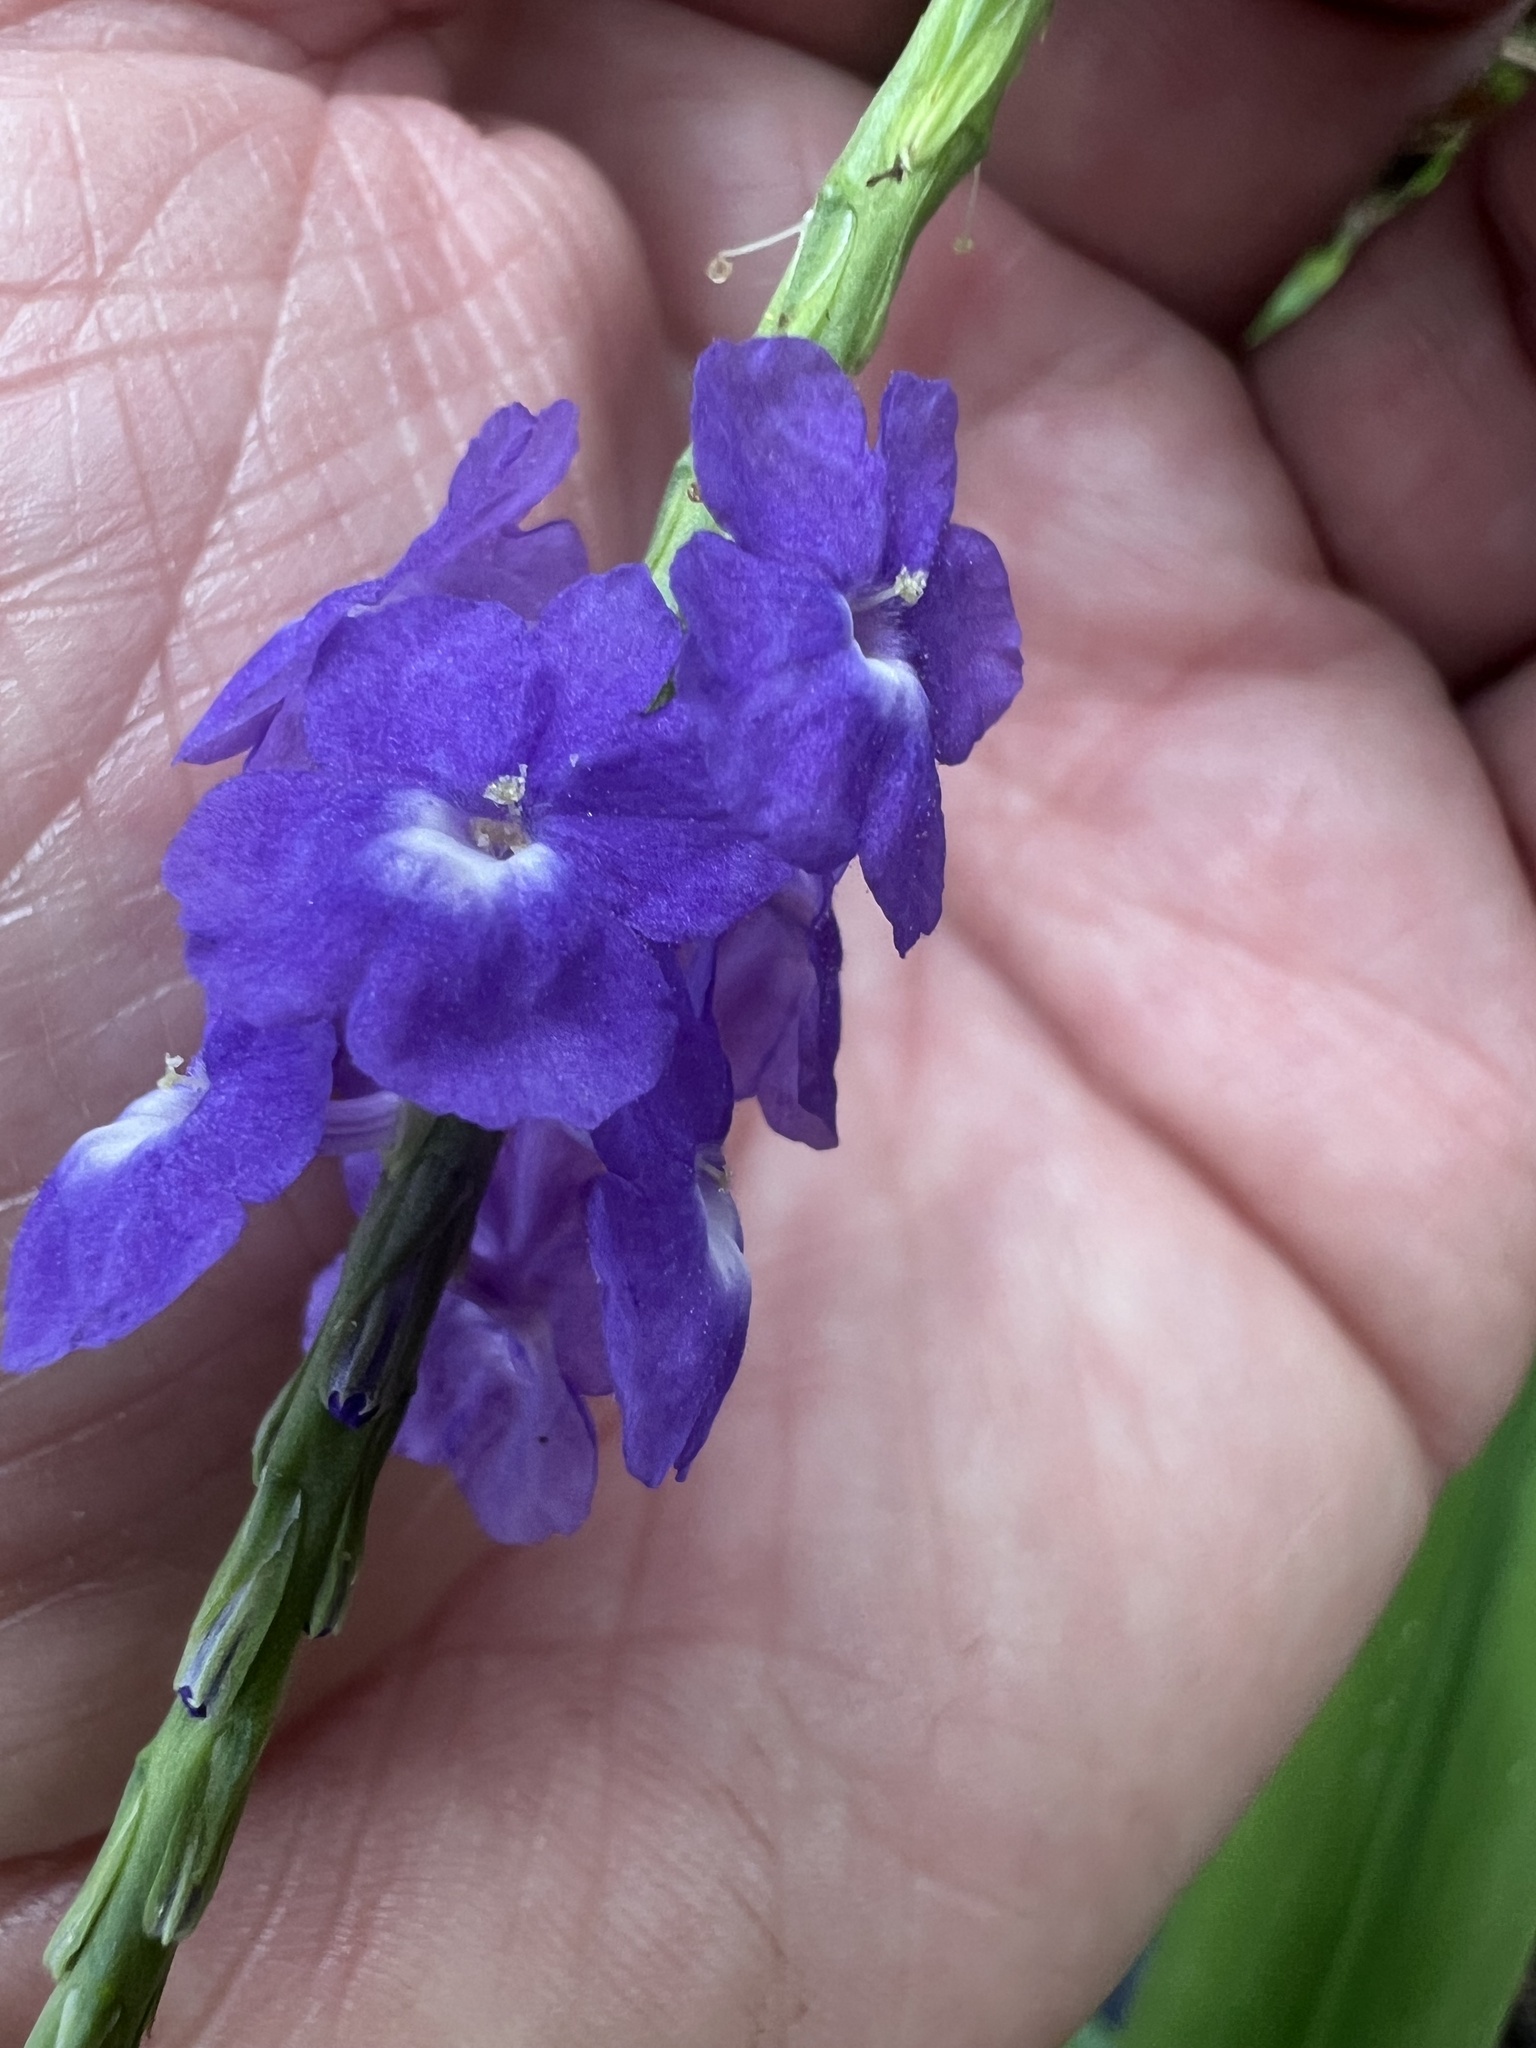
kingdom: Plantae
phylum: Tracheophyta
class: Magnoliopsida
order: Lamiales
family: Verbenaceae
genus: Stachytarpheta
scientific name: Stachytarpheta cayennensis
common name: Cayenne porterweed
